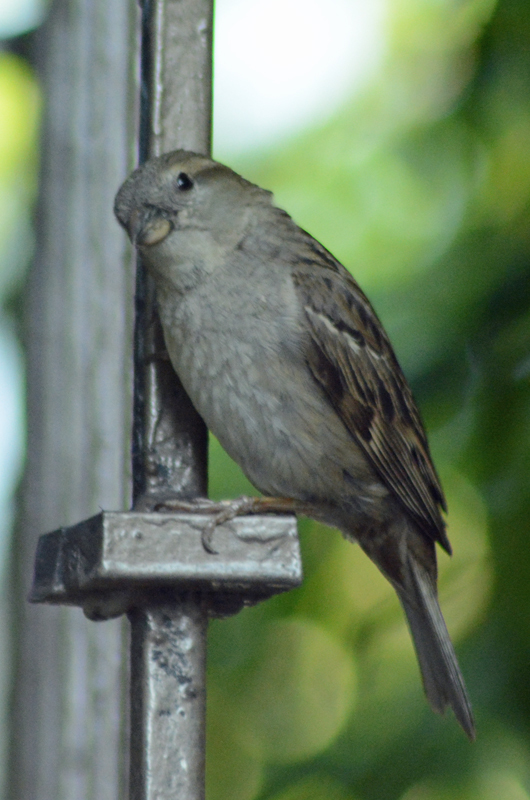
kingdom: Animalia
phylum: Chordata
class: Aves
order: Passeriformes
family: Passeridae
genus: Passer
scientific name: Passer domesticus
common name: House sparrow
